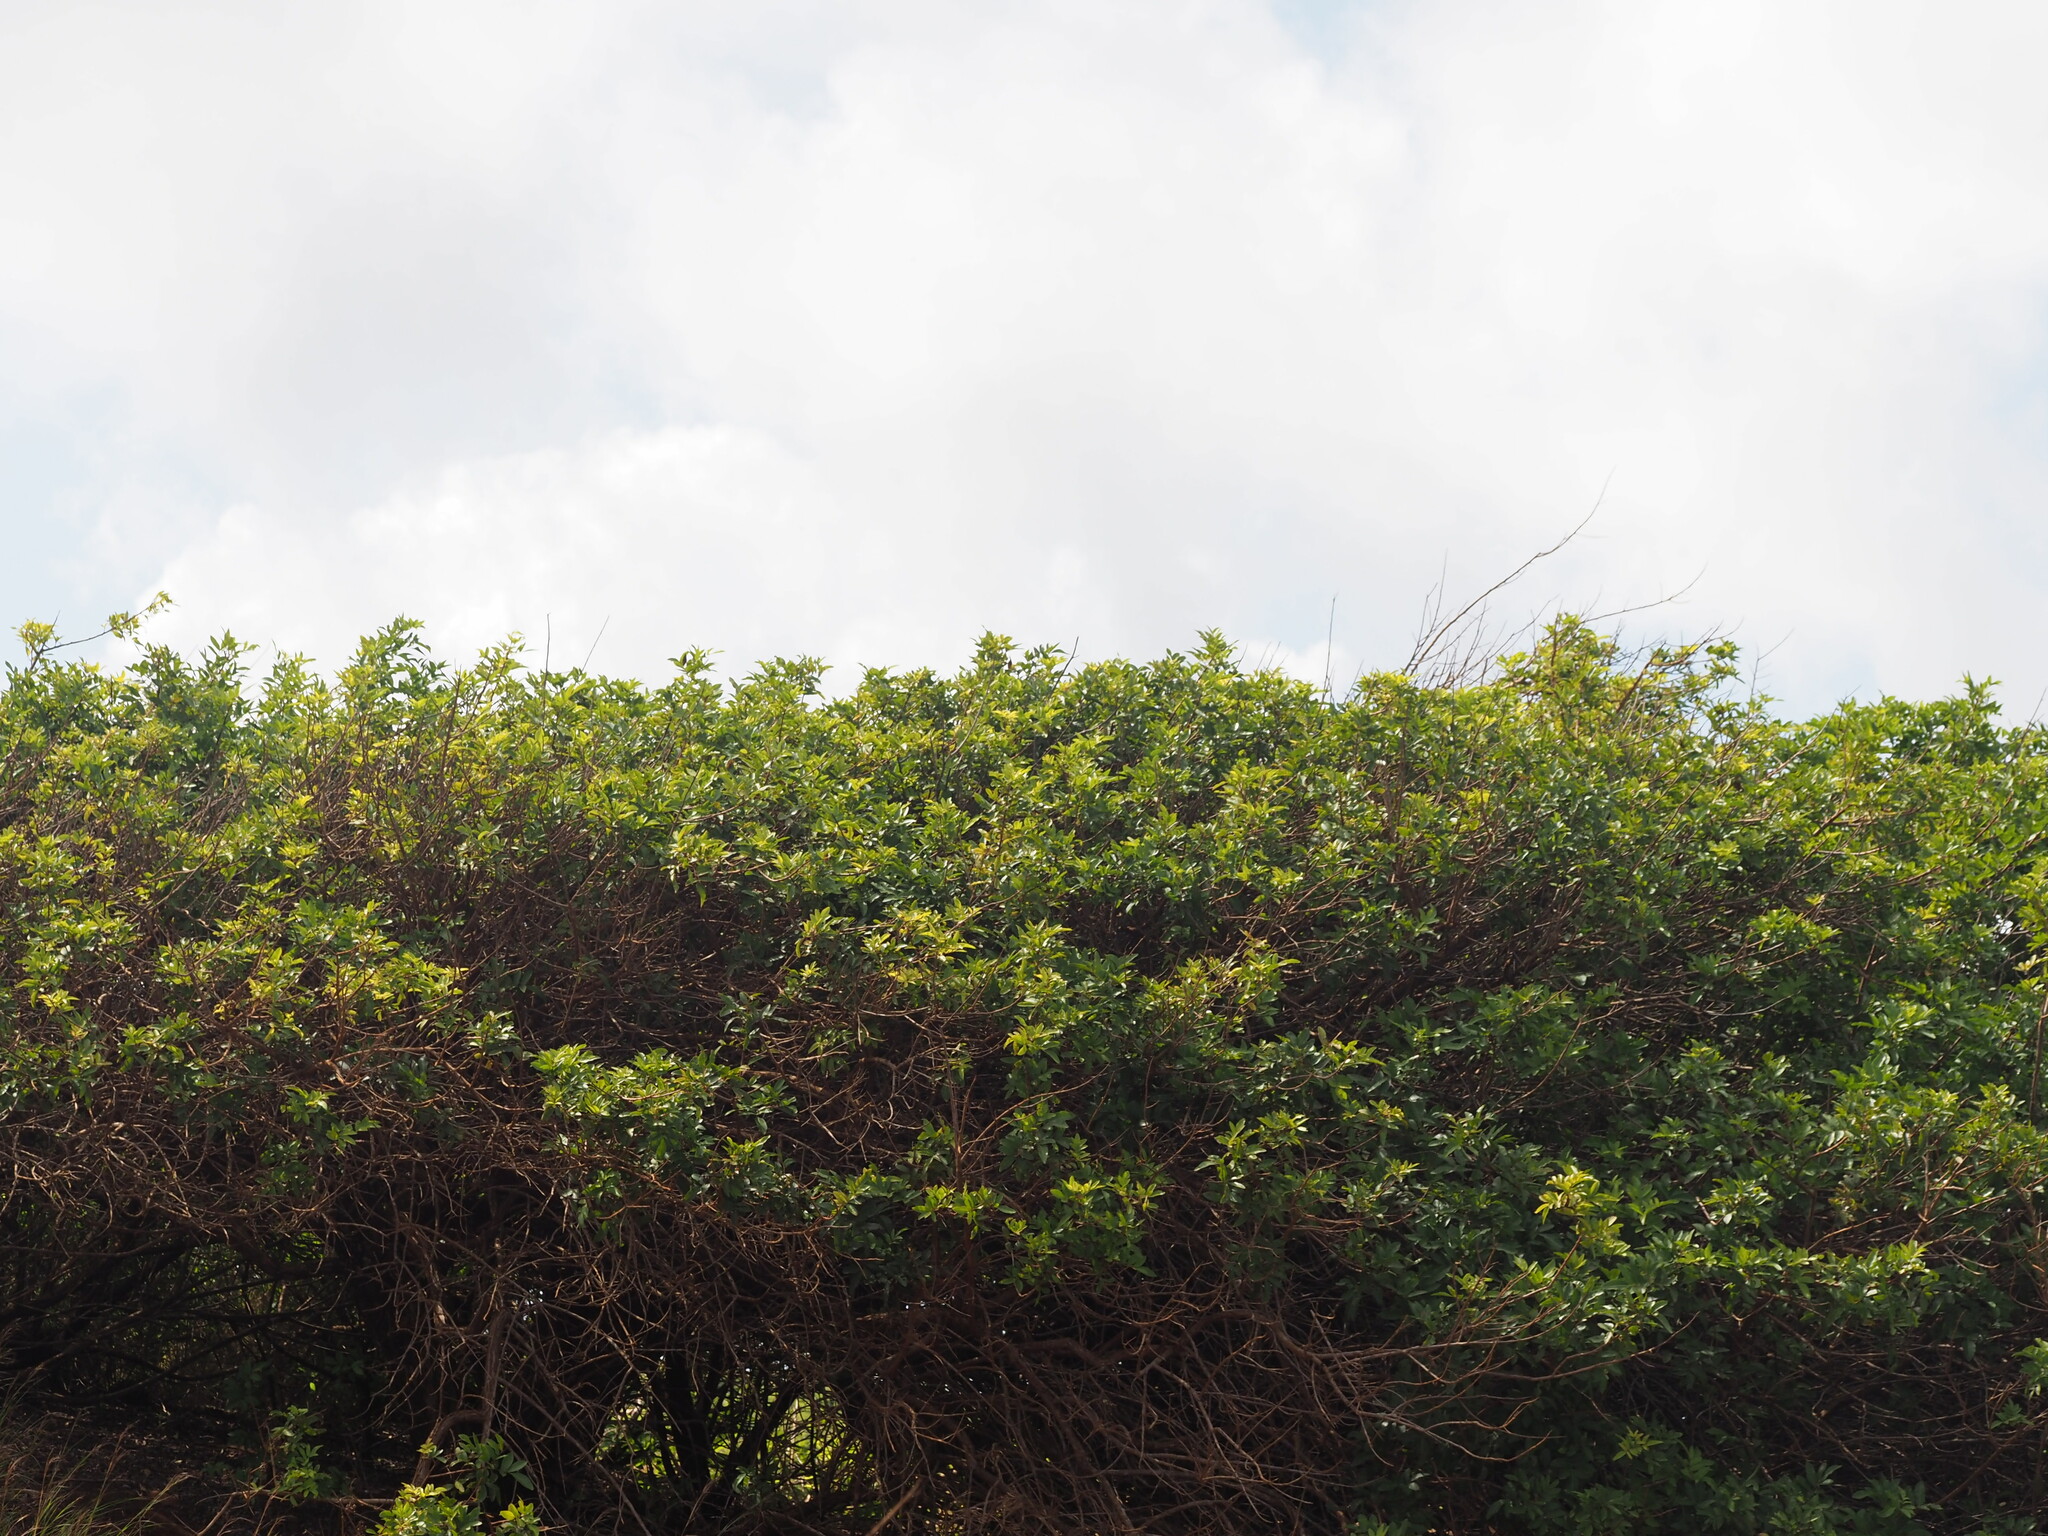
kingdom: Plantae
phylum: Tracheophyta
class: Magnoliopsida
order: Sapindales
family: Anacardiaceae
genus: Schinus
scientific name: Schinus terebinthifolia
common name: Brazilian peppertree
